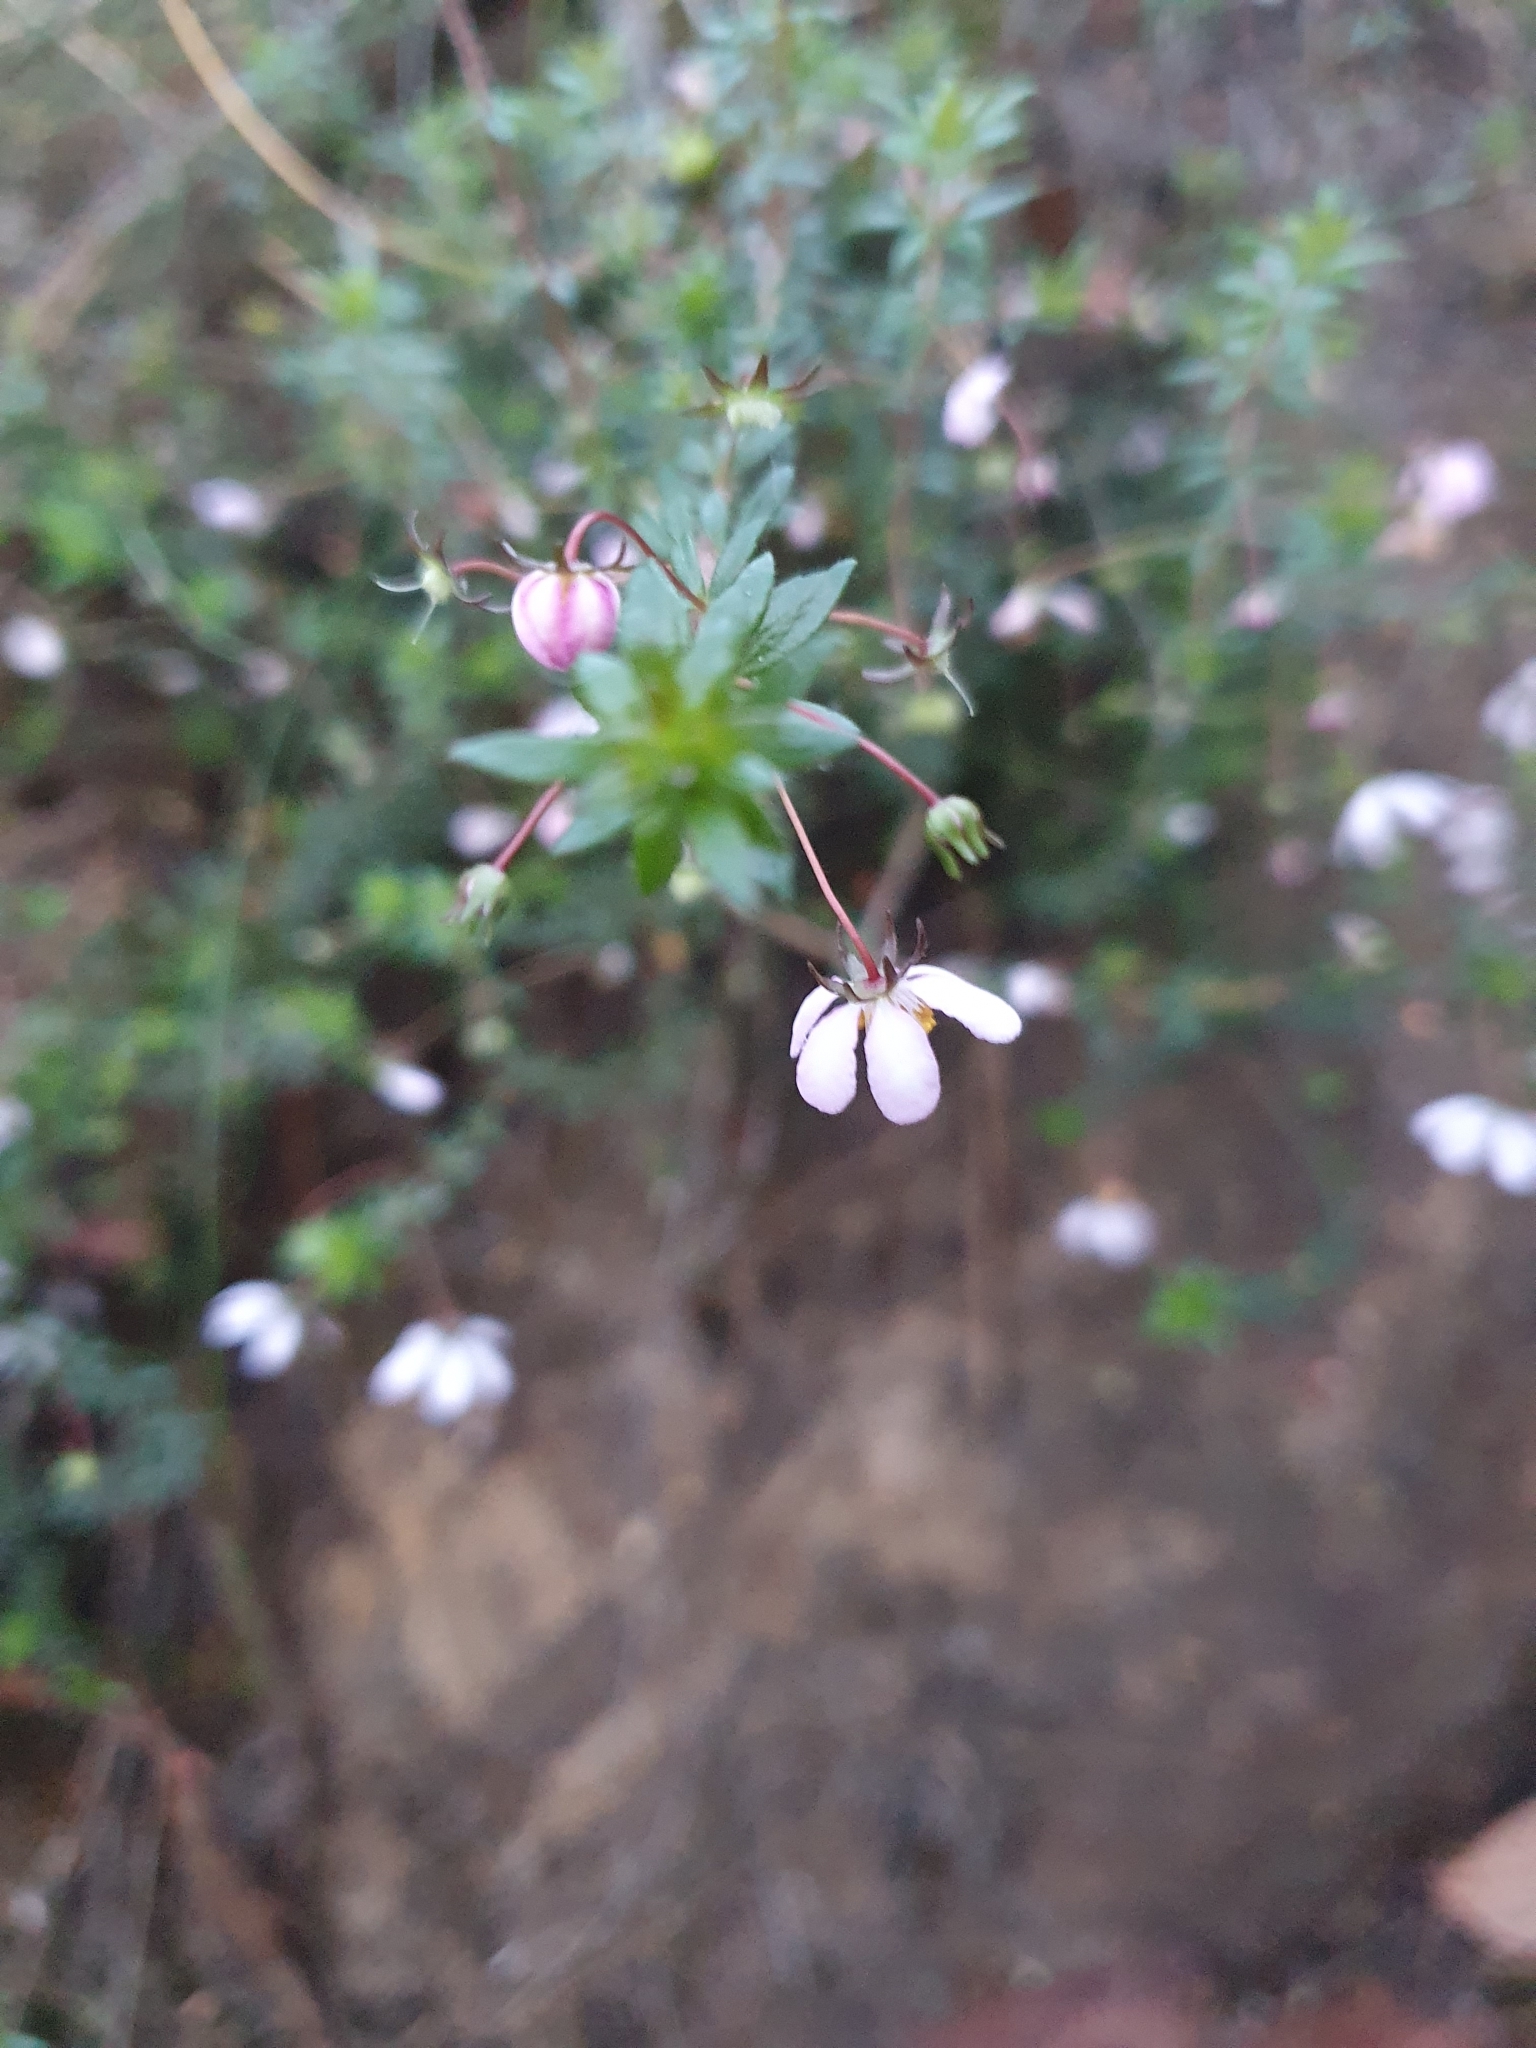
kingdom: Plantae
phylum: Tracheophyta
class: Magnoliopsida
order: Oxalidales
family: Cunoniaceae
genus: Bauera
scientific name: Bauera rubioides
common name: River-rose
